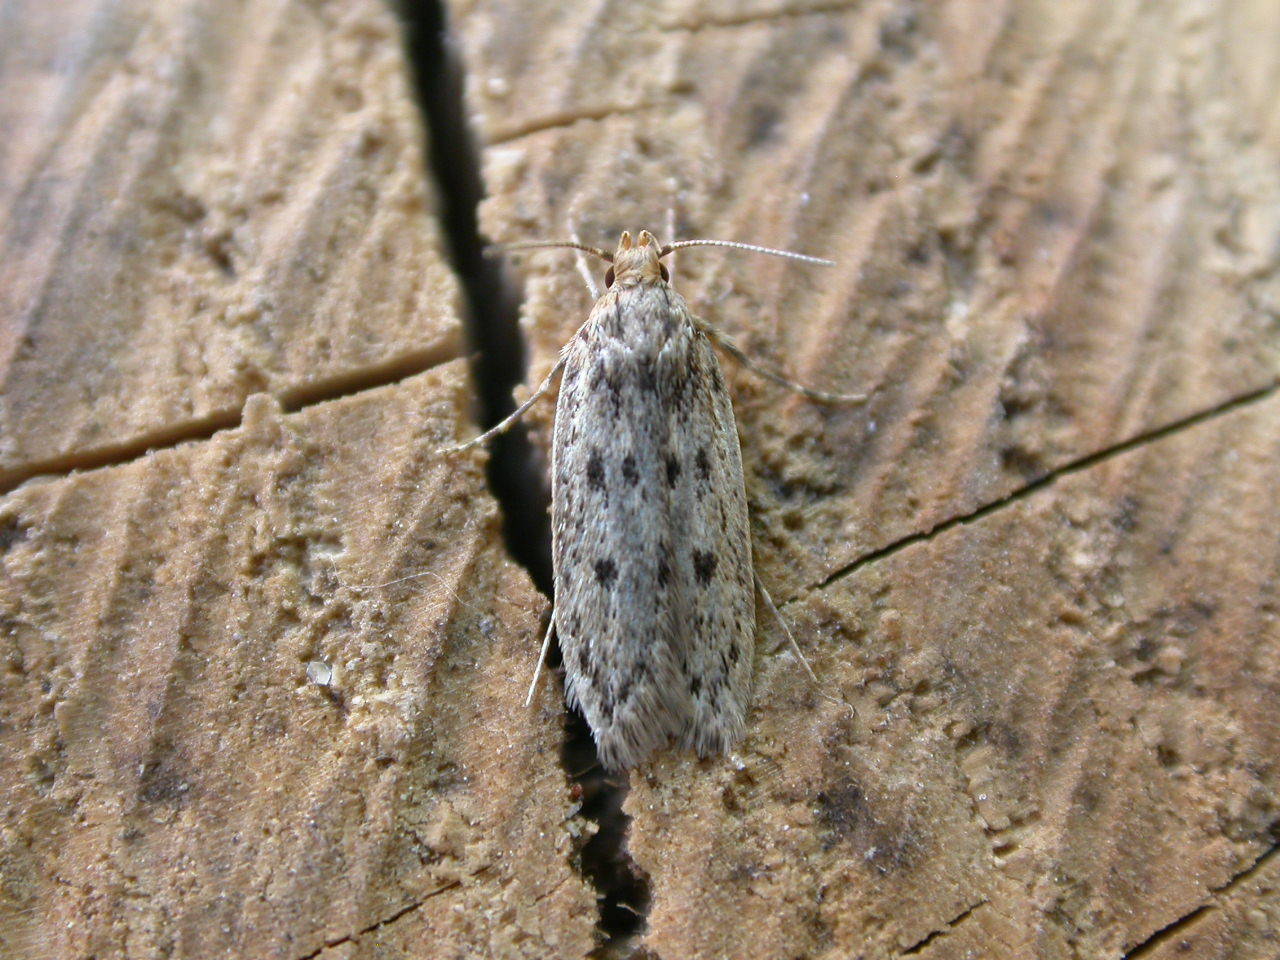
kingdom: Animalia
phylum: Arthropoda
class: Insecta
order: Lepidoptera
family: Oecophoridae
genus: Hofmannophila
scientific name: Hofmannophila pseudospretella
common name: Brown house moth
